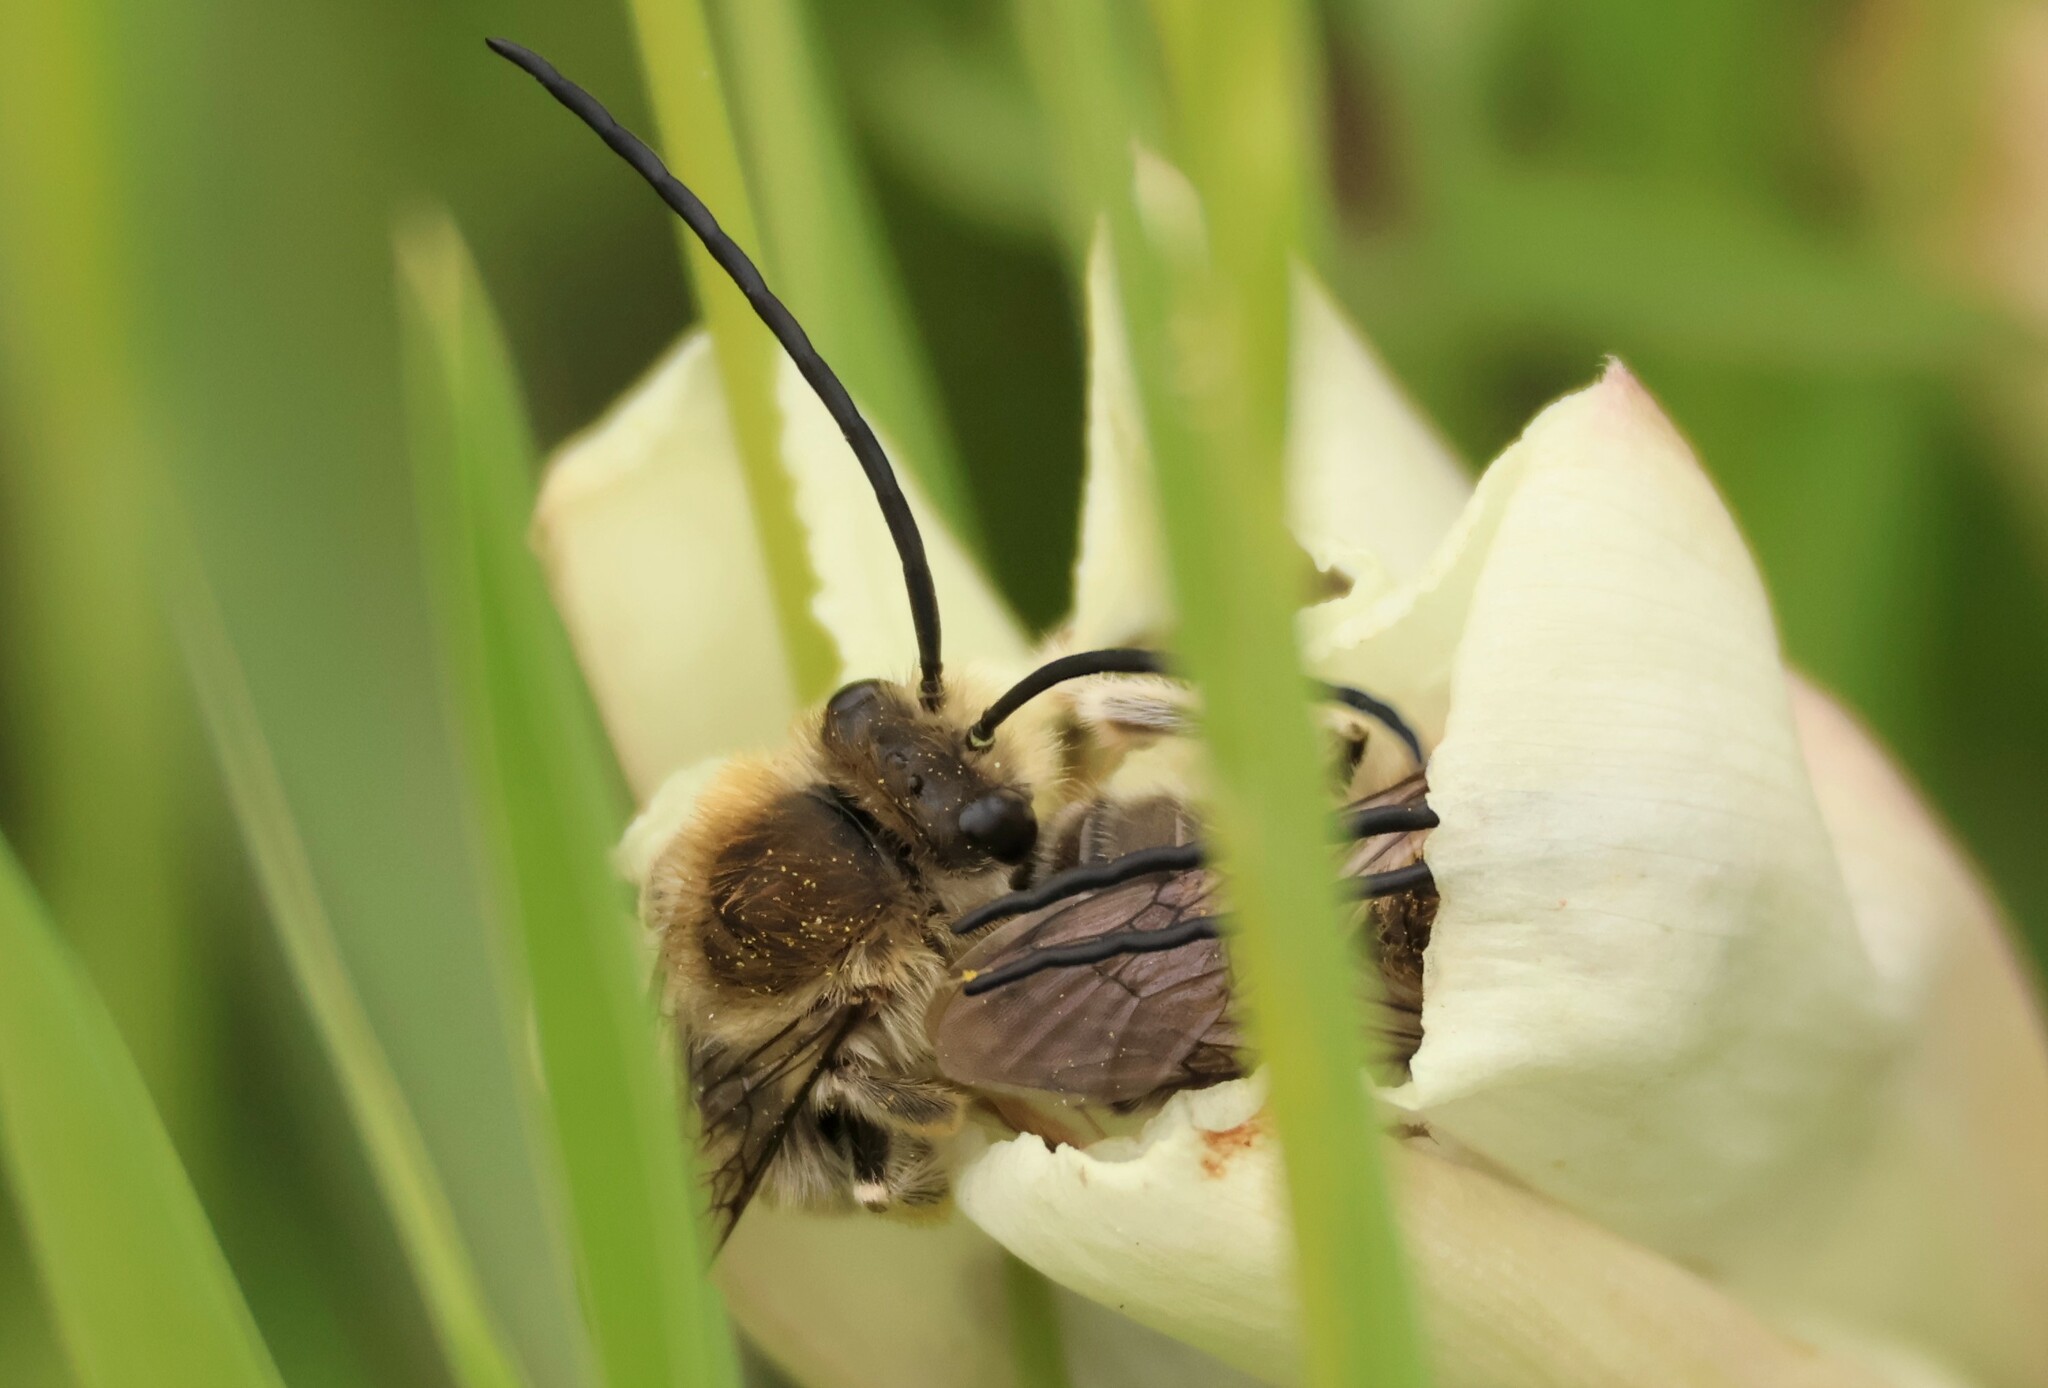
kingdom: Animalia
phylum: Arthropoda
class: Insecta
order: Hymenoptera
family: Apidae
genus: Tetraloniella
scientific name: Tetraloniella davidsoni
